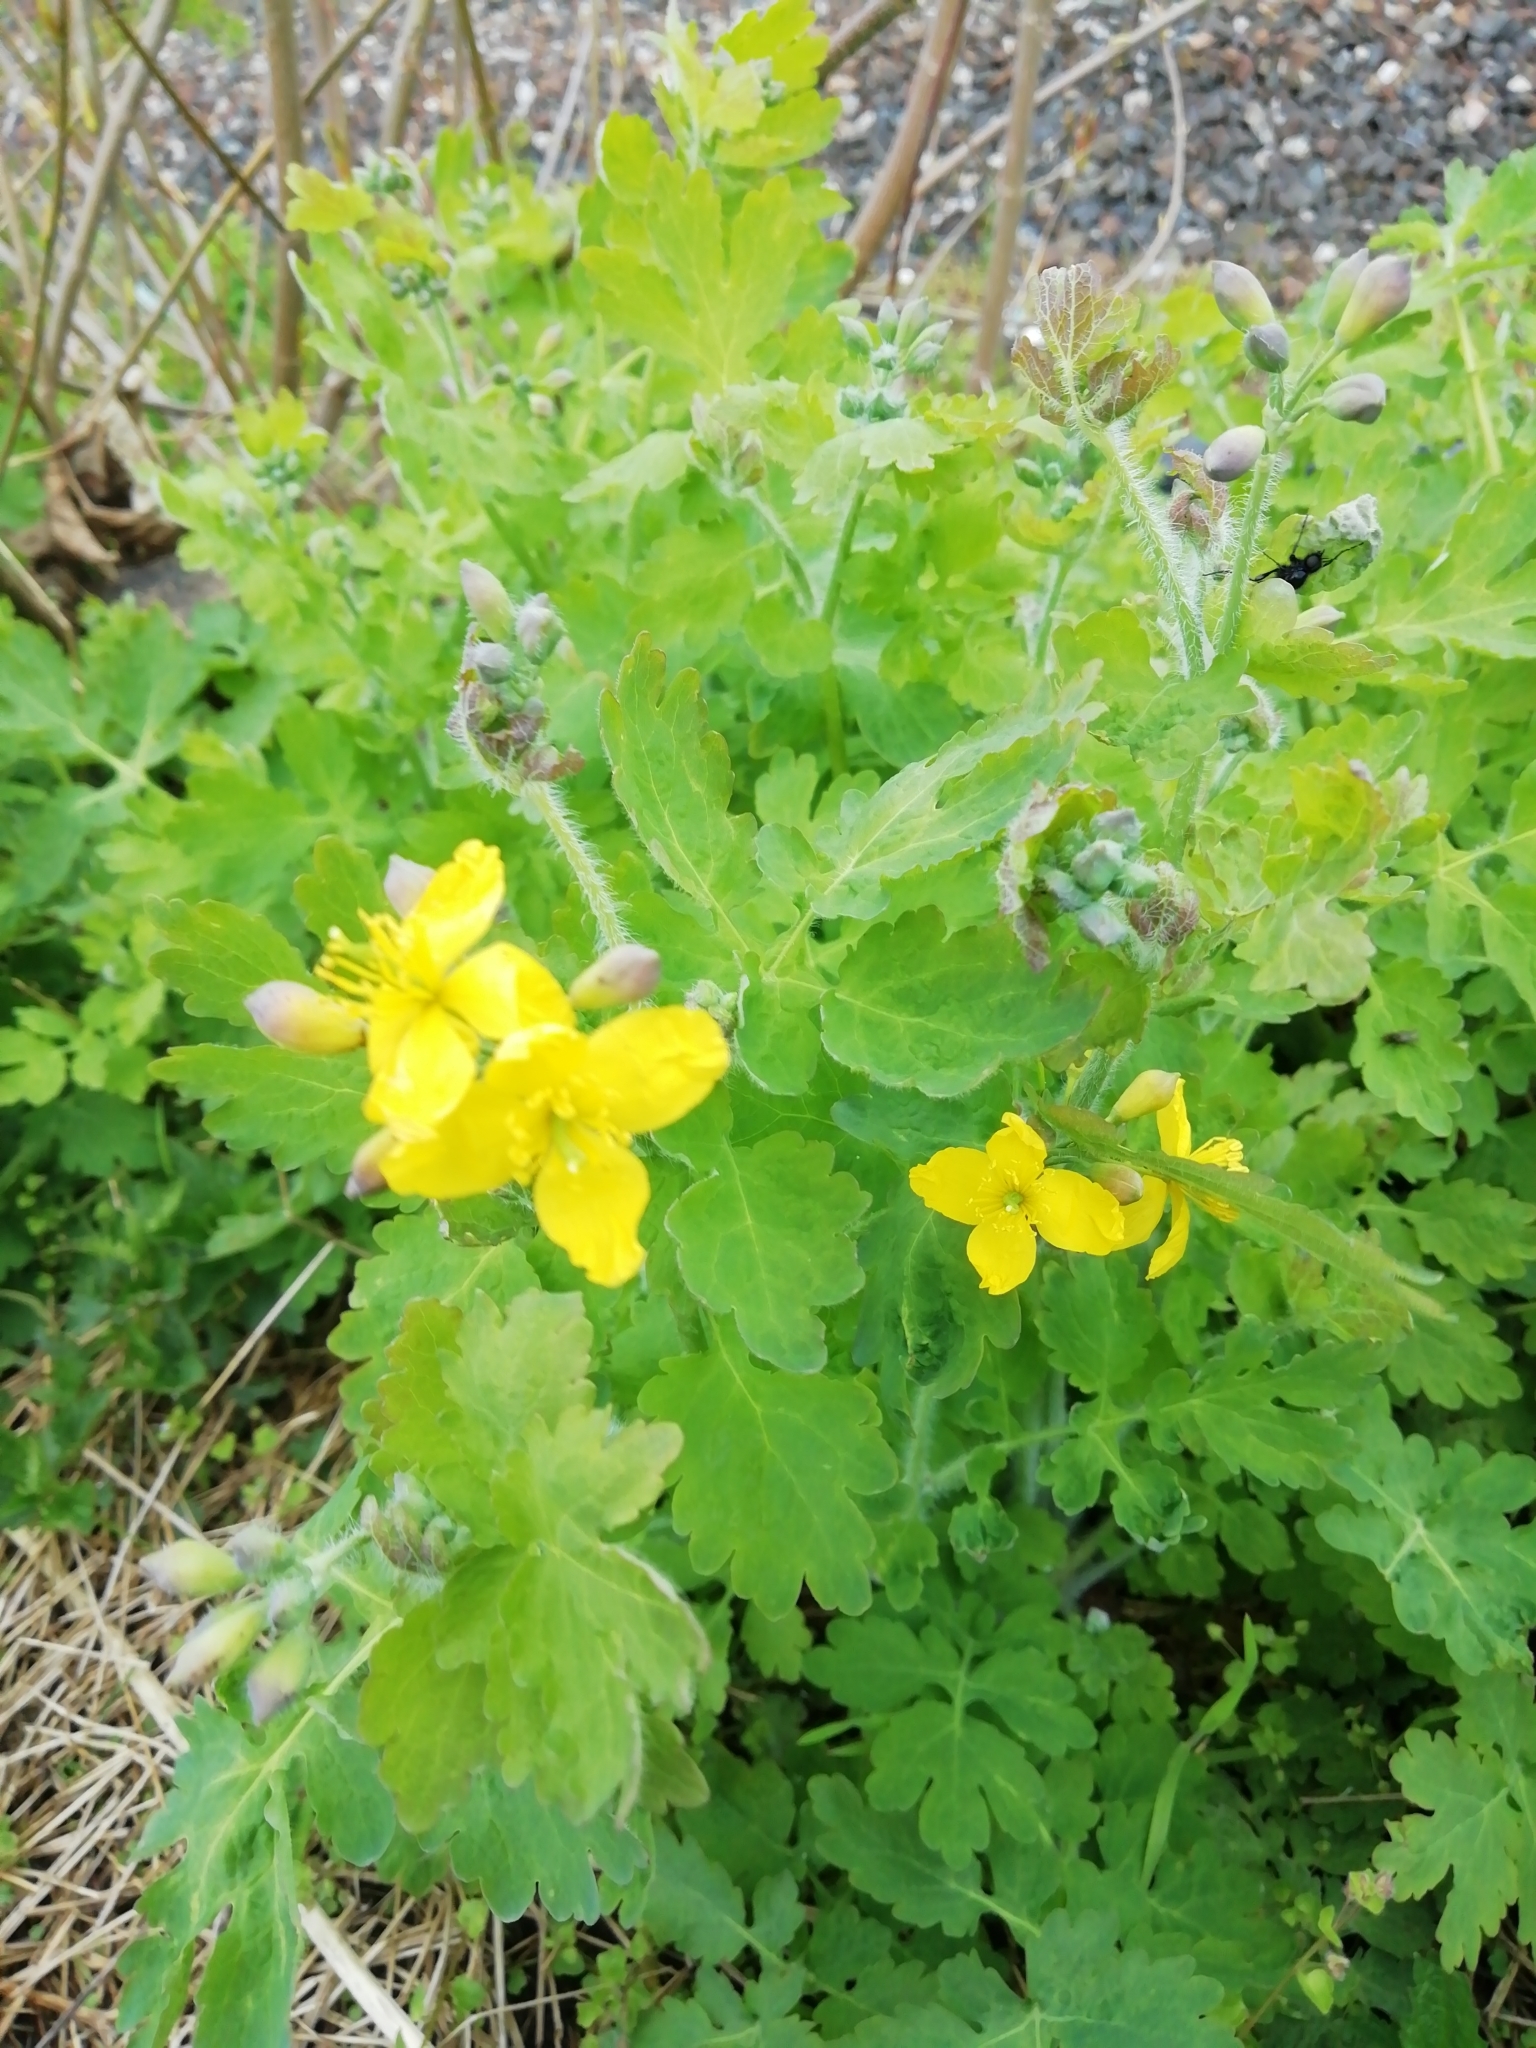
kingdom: Plantae
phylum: Tracheophyta
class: Magnoliopsida
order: Ranunculales
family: Papaveraceae
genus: Chelidonium
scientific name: Chelidonium majus
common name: Greater celandine
